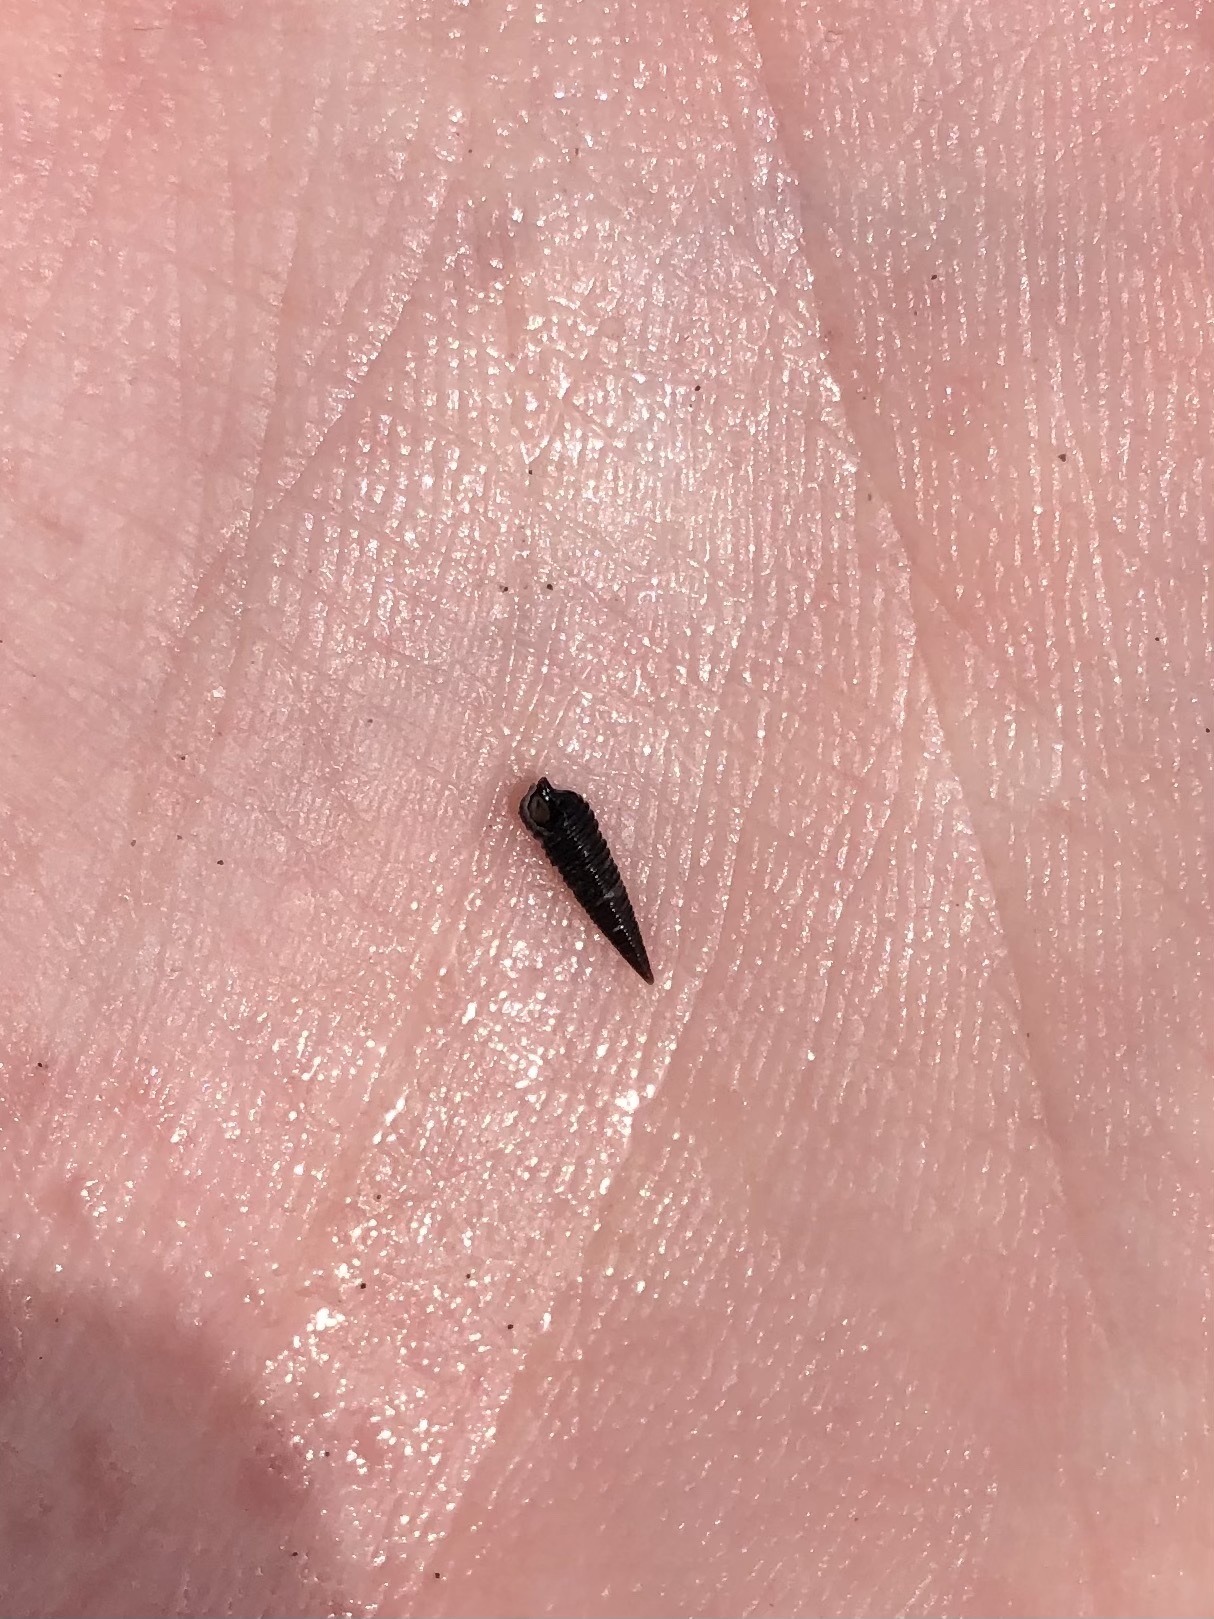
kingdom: Animalia
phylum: Mollusca
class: Gastropoda
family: Cerithiopsidae
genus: Seila
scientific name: Seila adamsii
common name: Adam's miniature cerith
